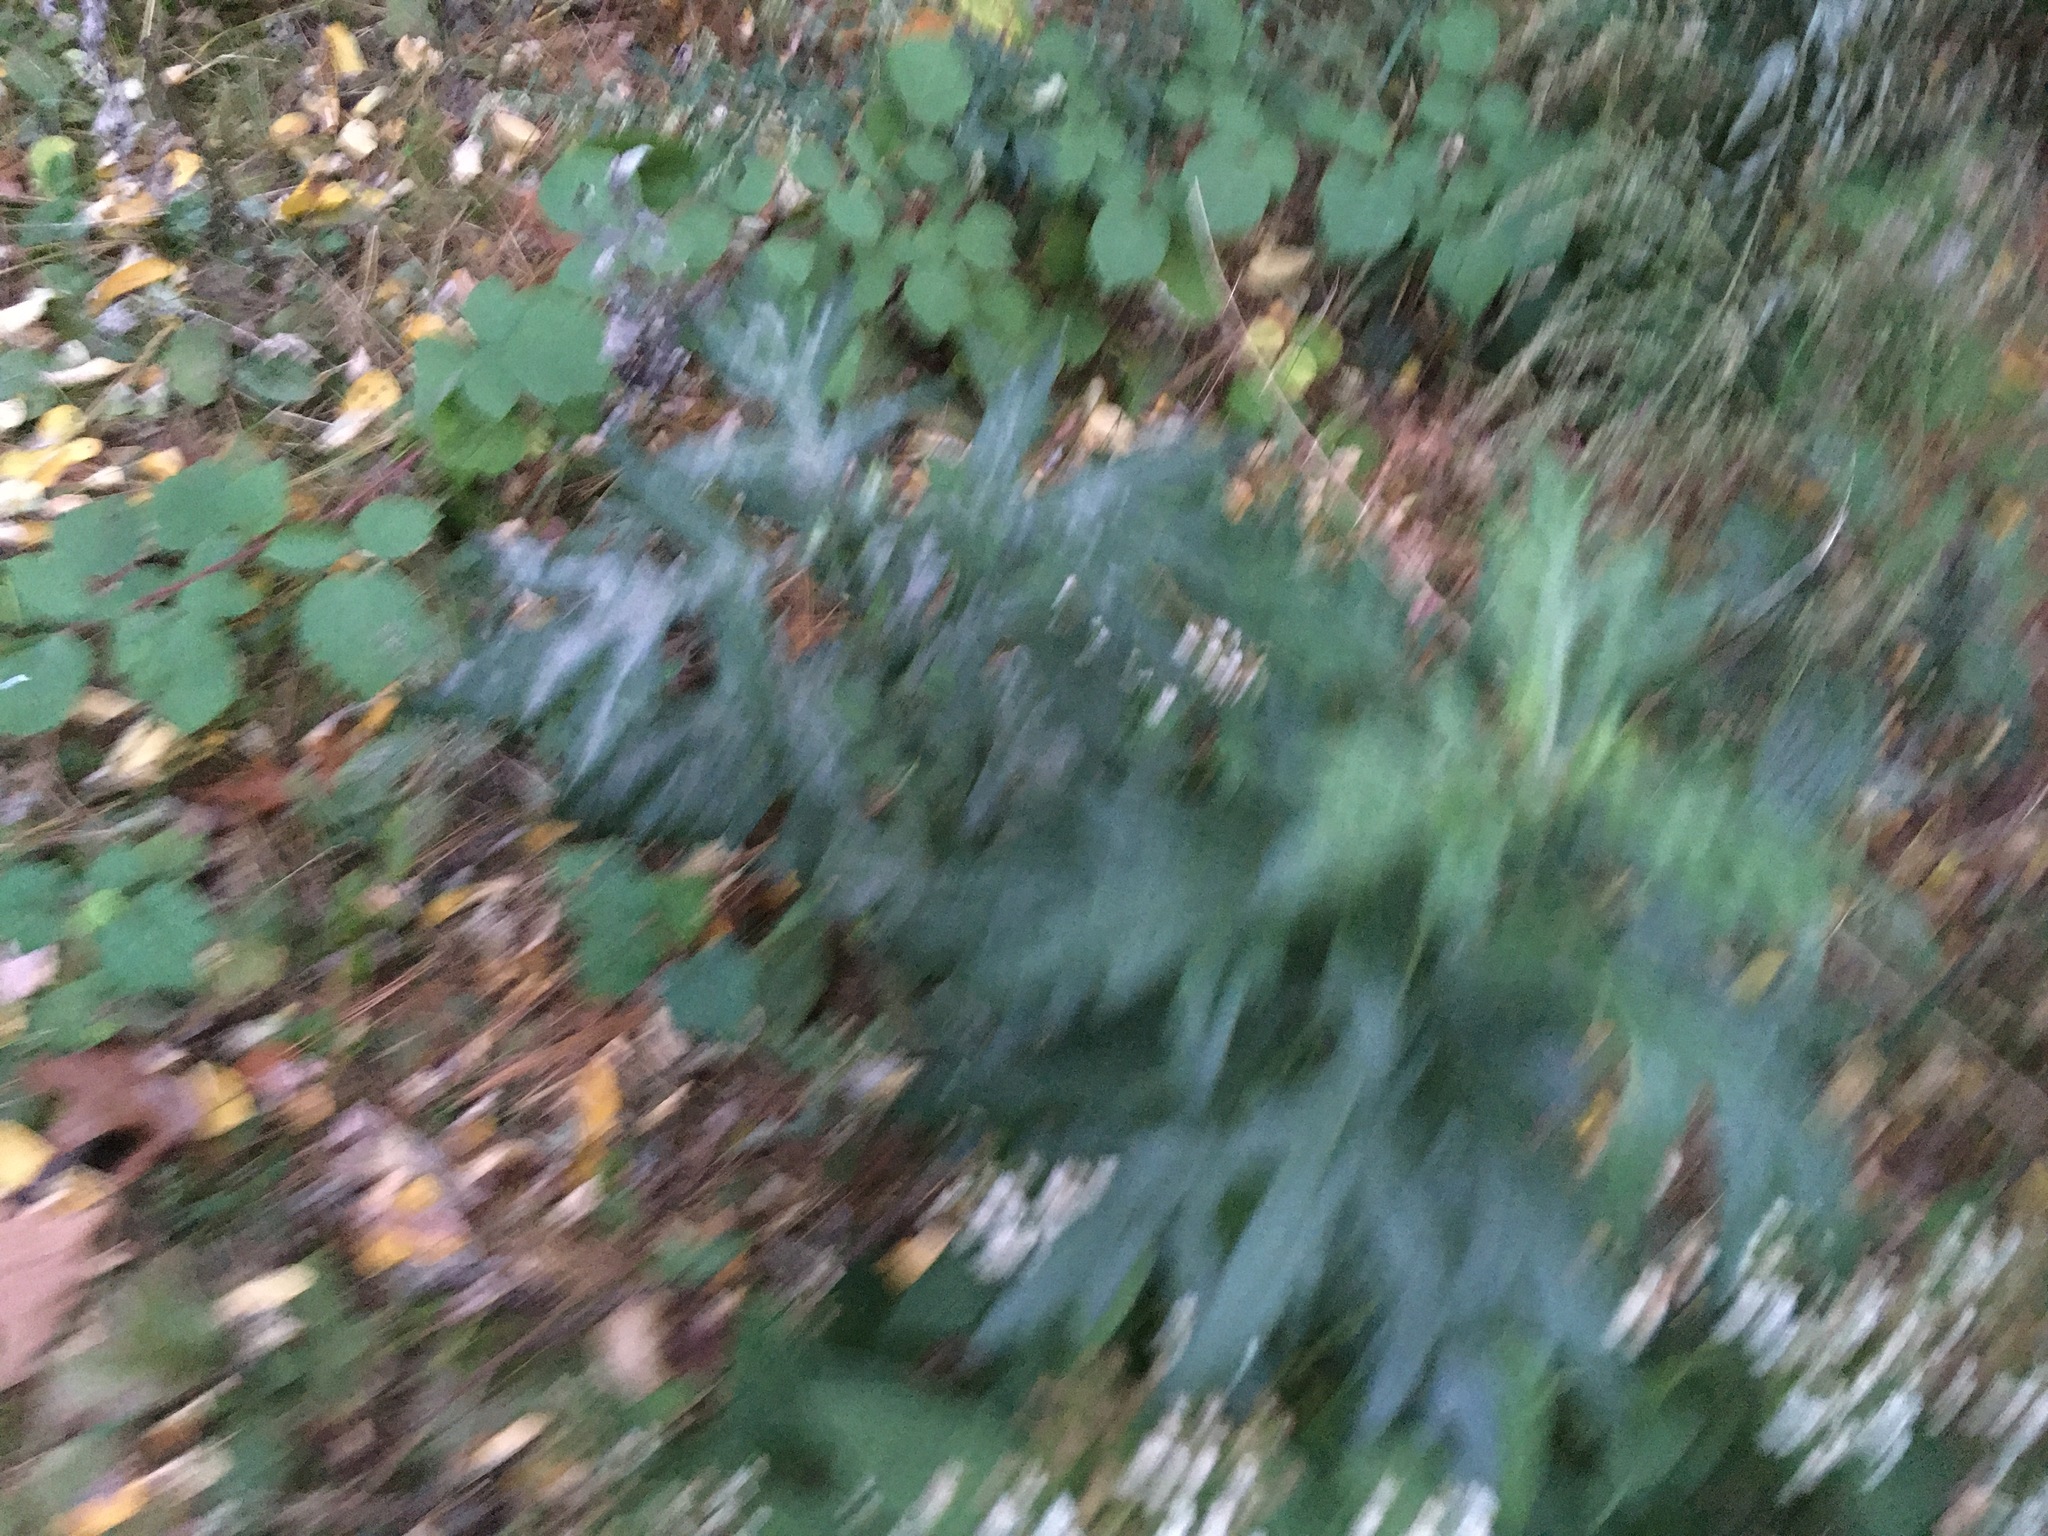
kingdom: Plantae
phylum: Tracheophyta
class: Magnoliopsida
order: Asterales
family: Asteraceae
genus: Artemisia
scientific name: Artemisia vulgaris
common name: Mugwort
